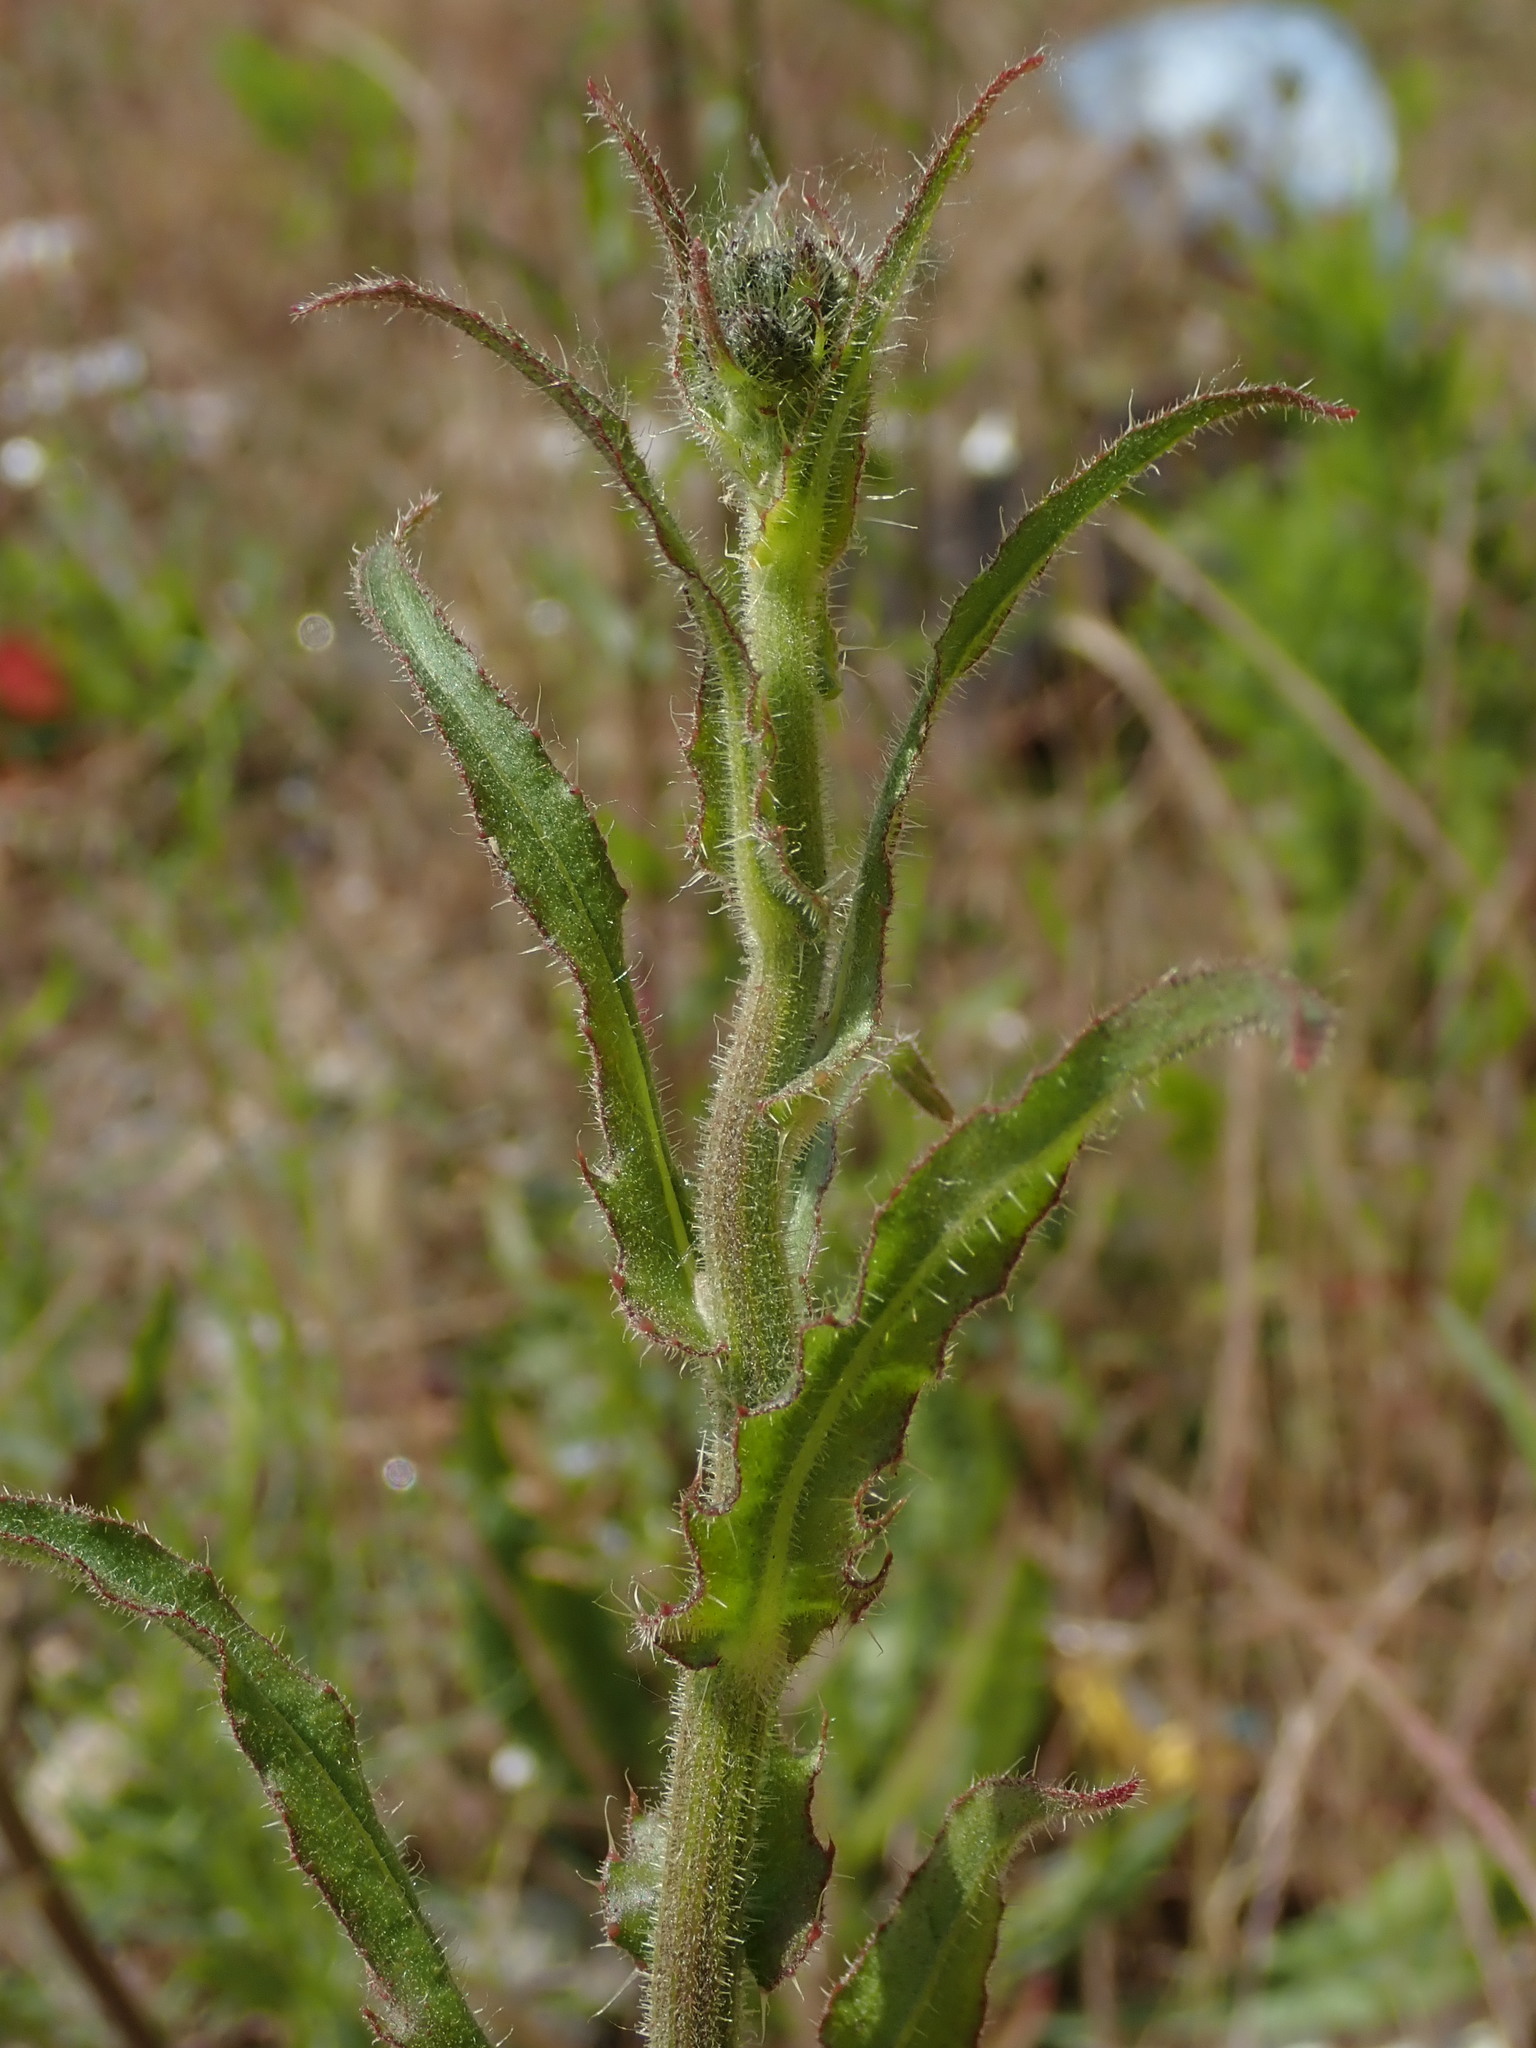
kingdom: Plantae
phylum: Tracheophyta
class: Magnoliopsida
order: Asterales
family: Asteraceae
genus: Picris
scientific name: Picris hieracioides
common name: Hawkweed oxtongue
